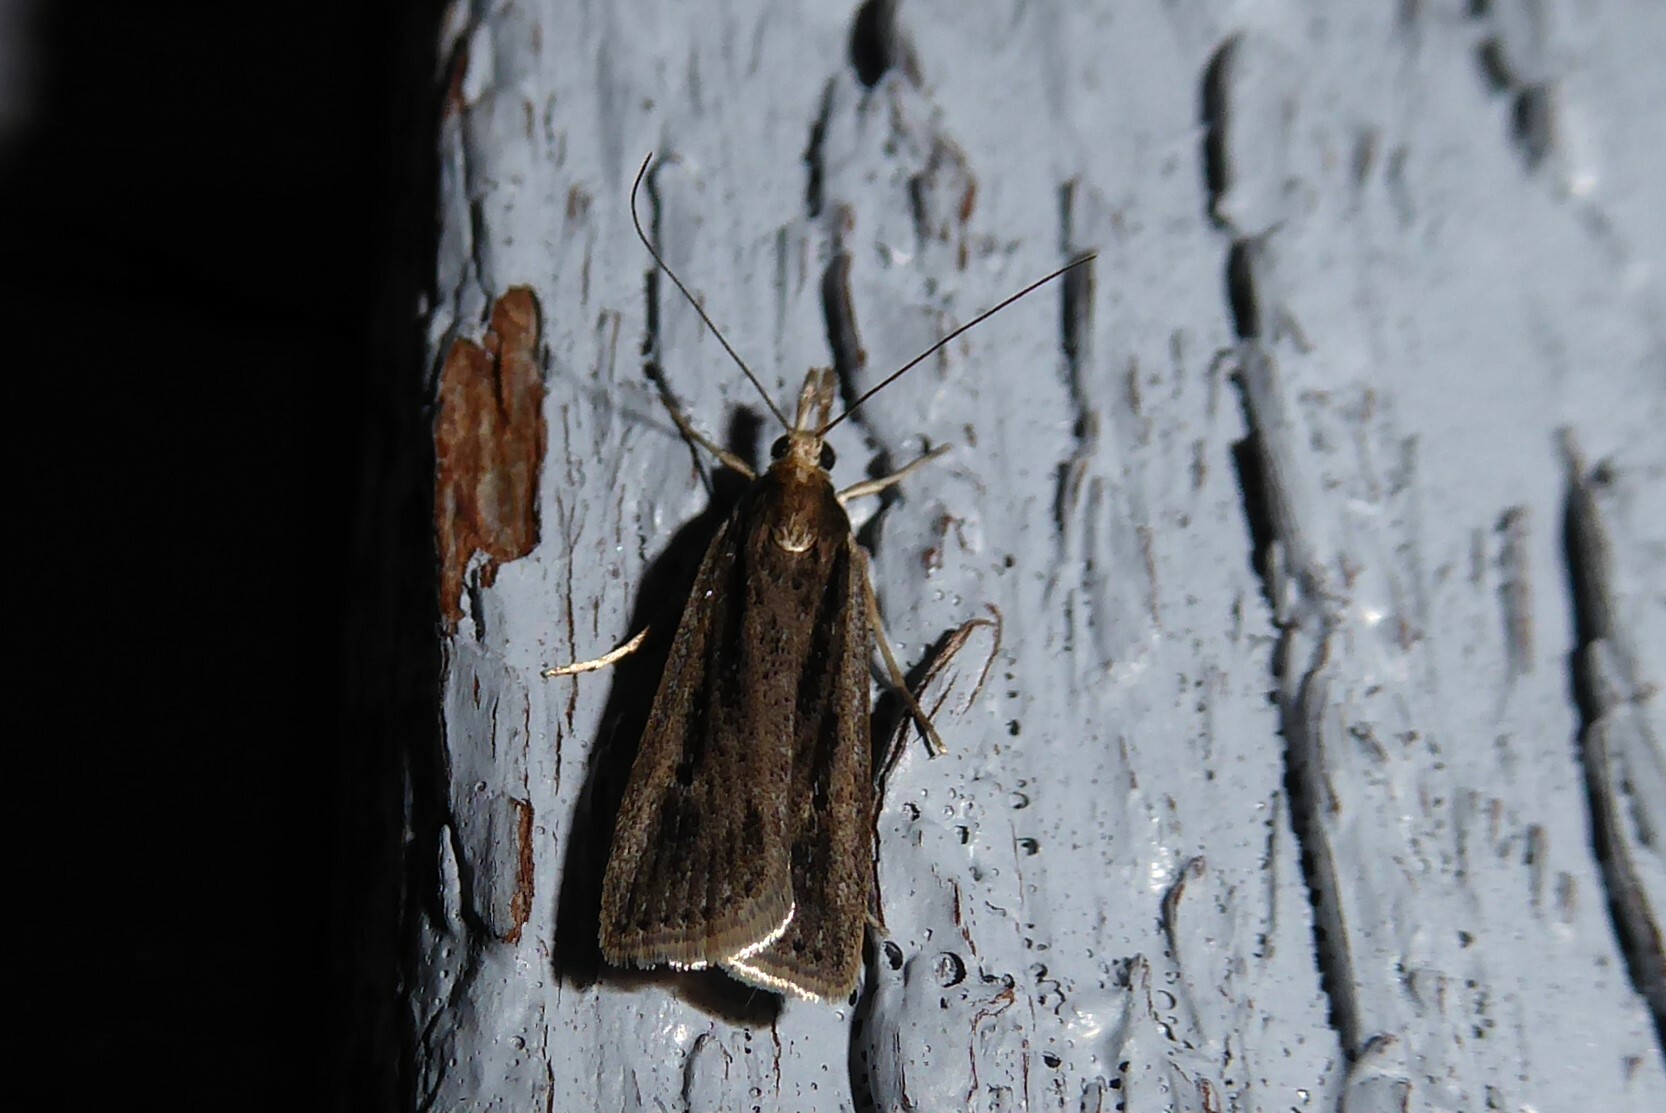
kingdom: Animalia
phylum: Arthropoda
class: Insecta
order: Lepidoptera
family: Crambidae
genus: Eudonia
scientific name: Eudonia sabulosella
